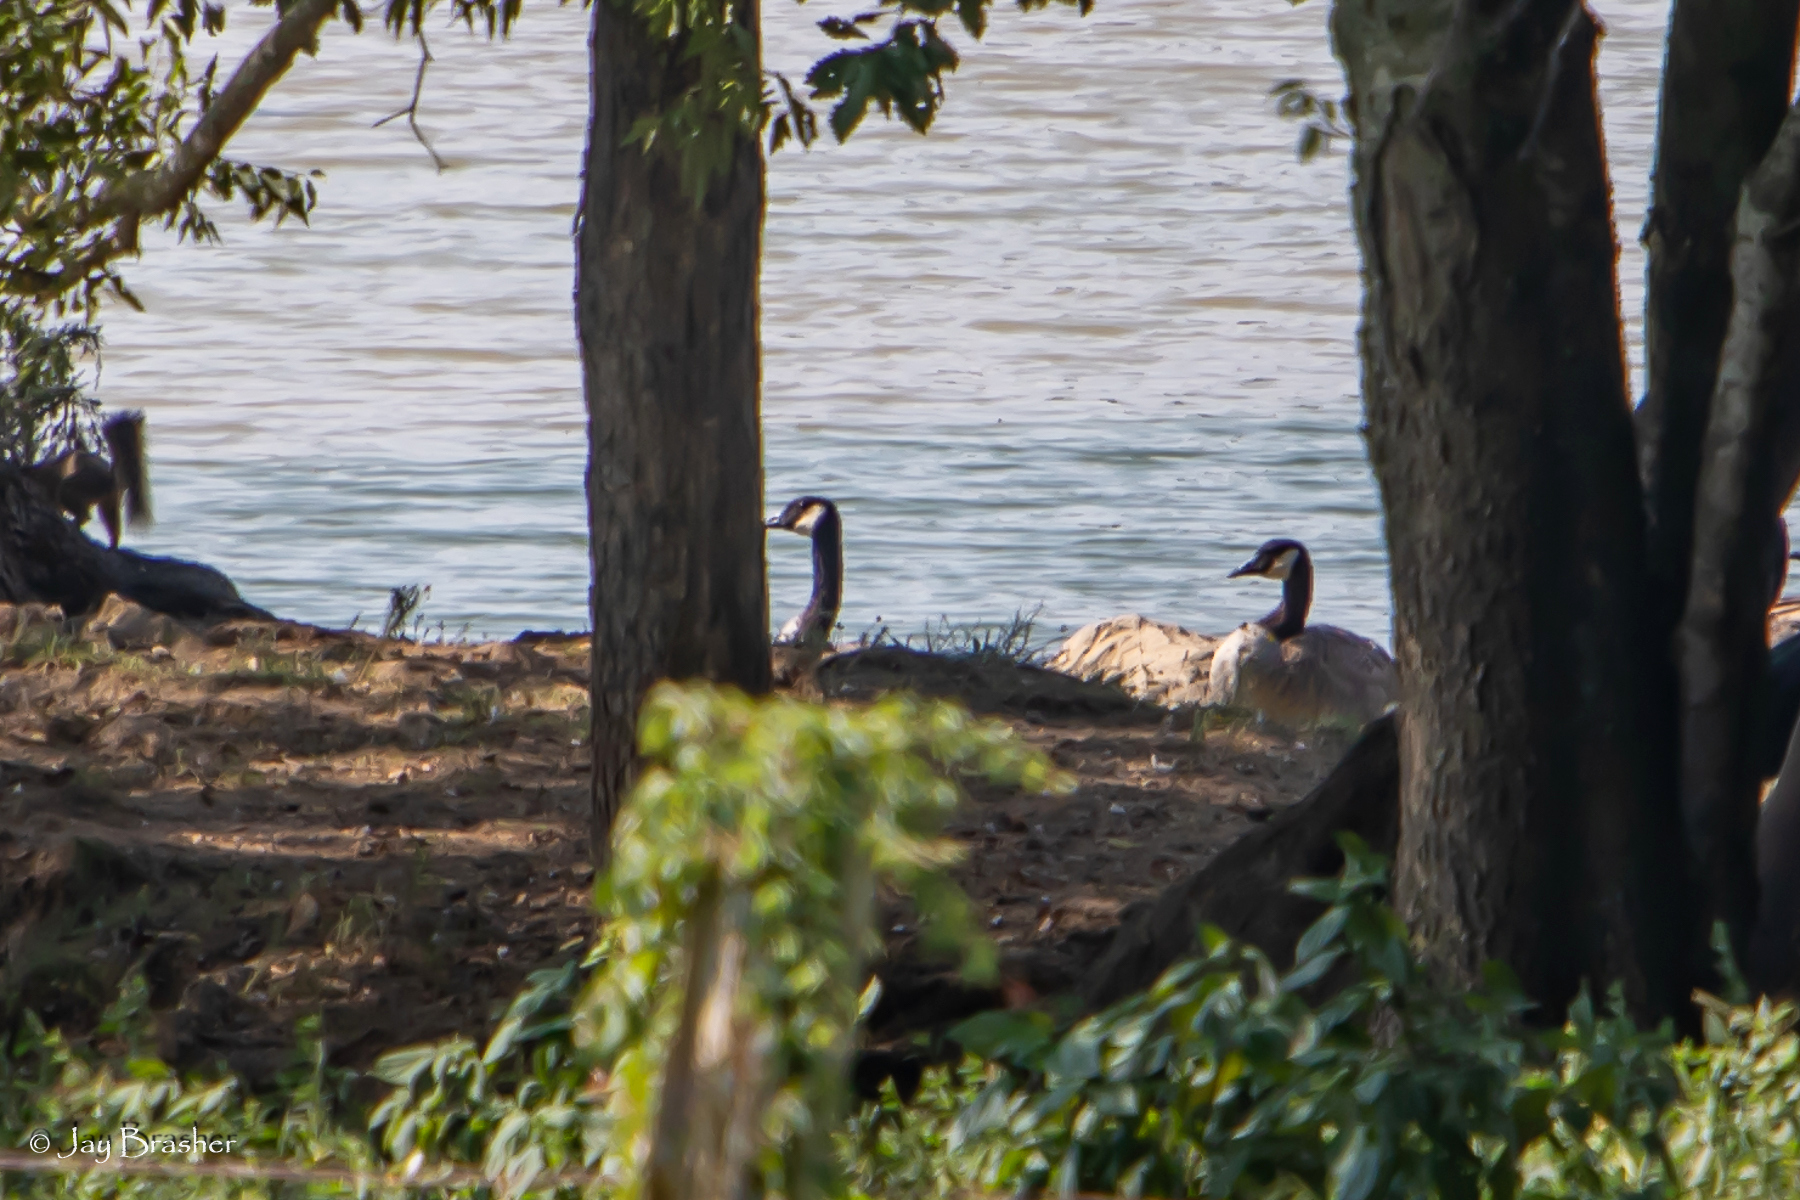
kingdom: Animalia
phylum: Chordata
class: Aves
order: Anseriformes
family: Anatidae
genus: Branta
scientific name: Branta canadensis
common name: Canada goose
